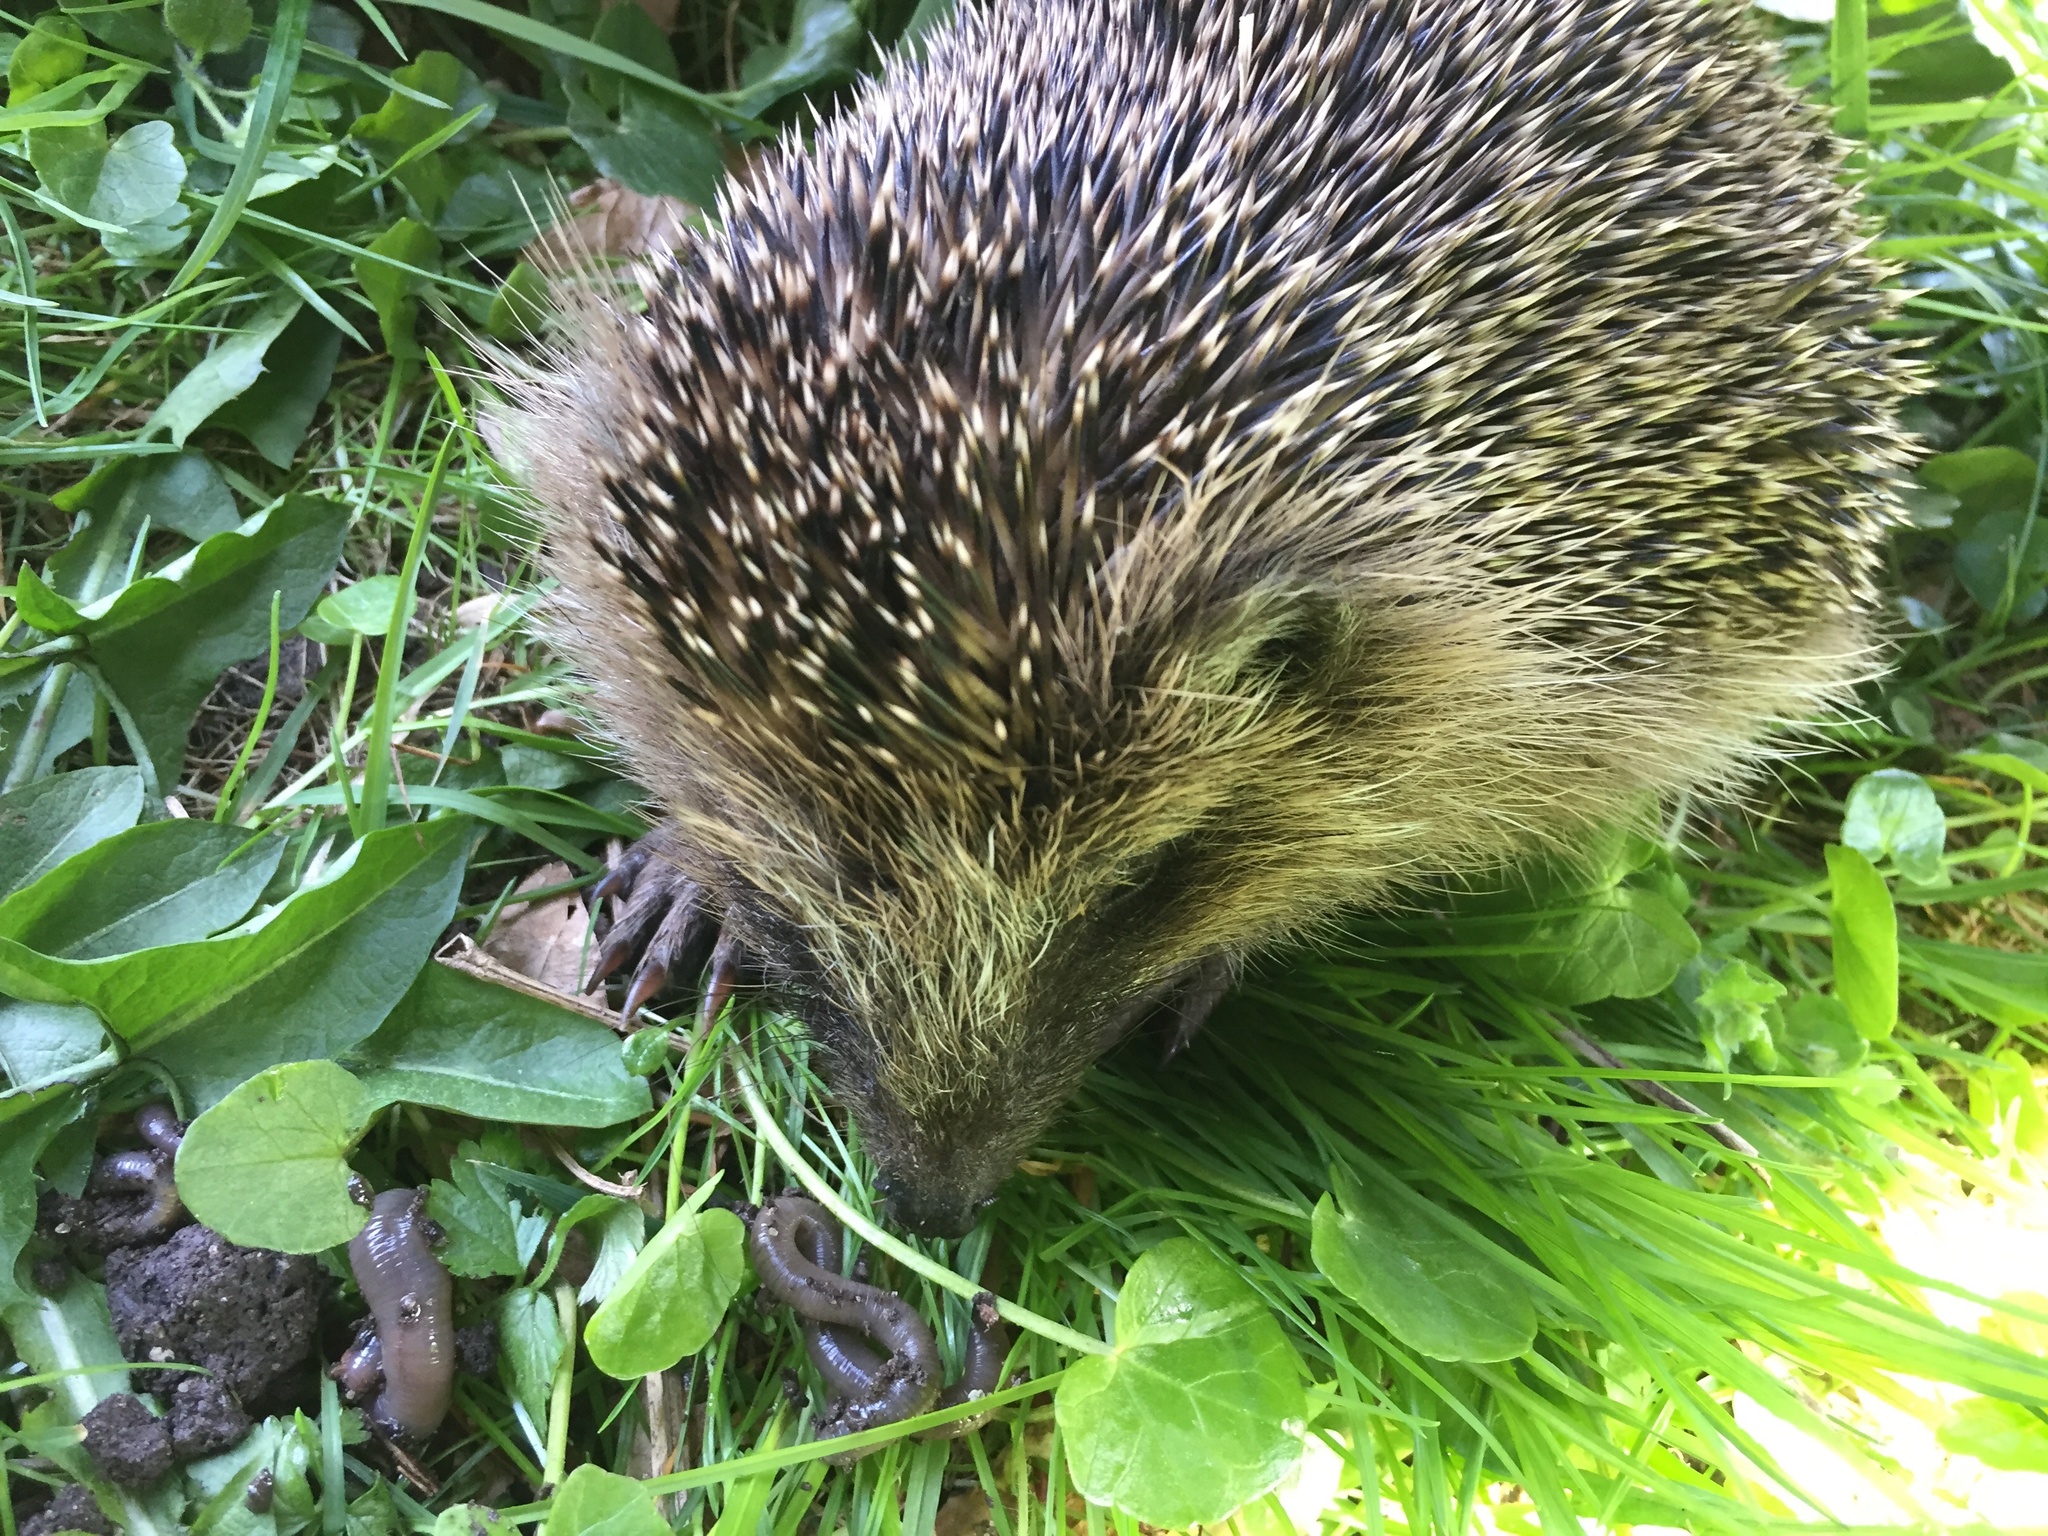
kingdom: Animalia
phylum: Chordata
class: Mammalia
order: Erinaceomorpha
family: Erinaceidae
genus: Erinaceus
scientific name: Erinaceus europaeus
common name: West european hedgehog
